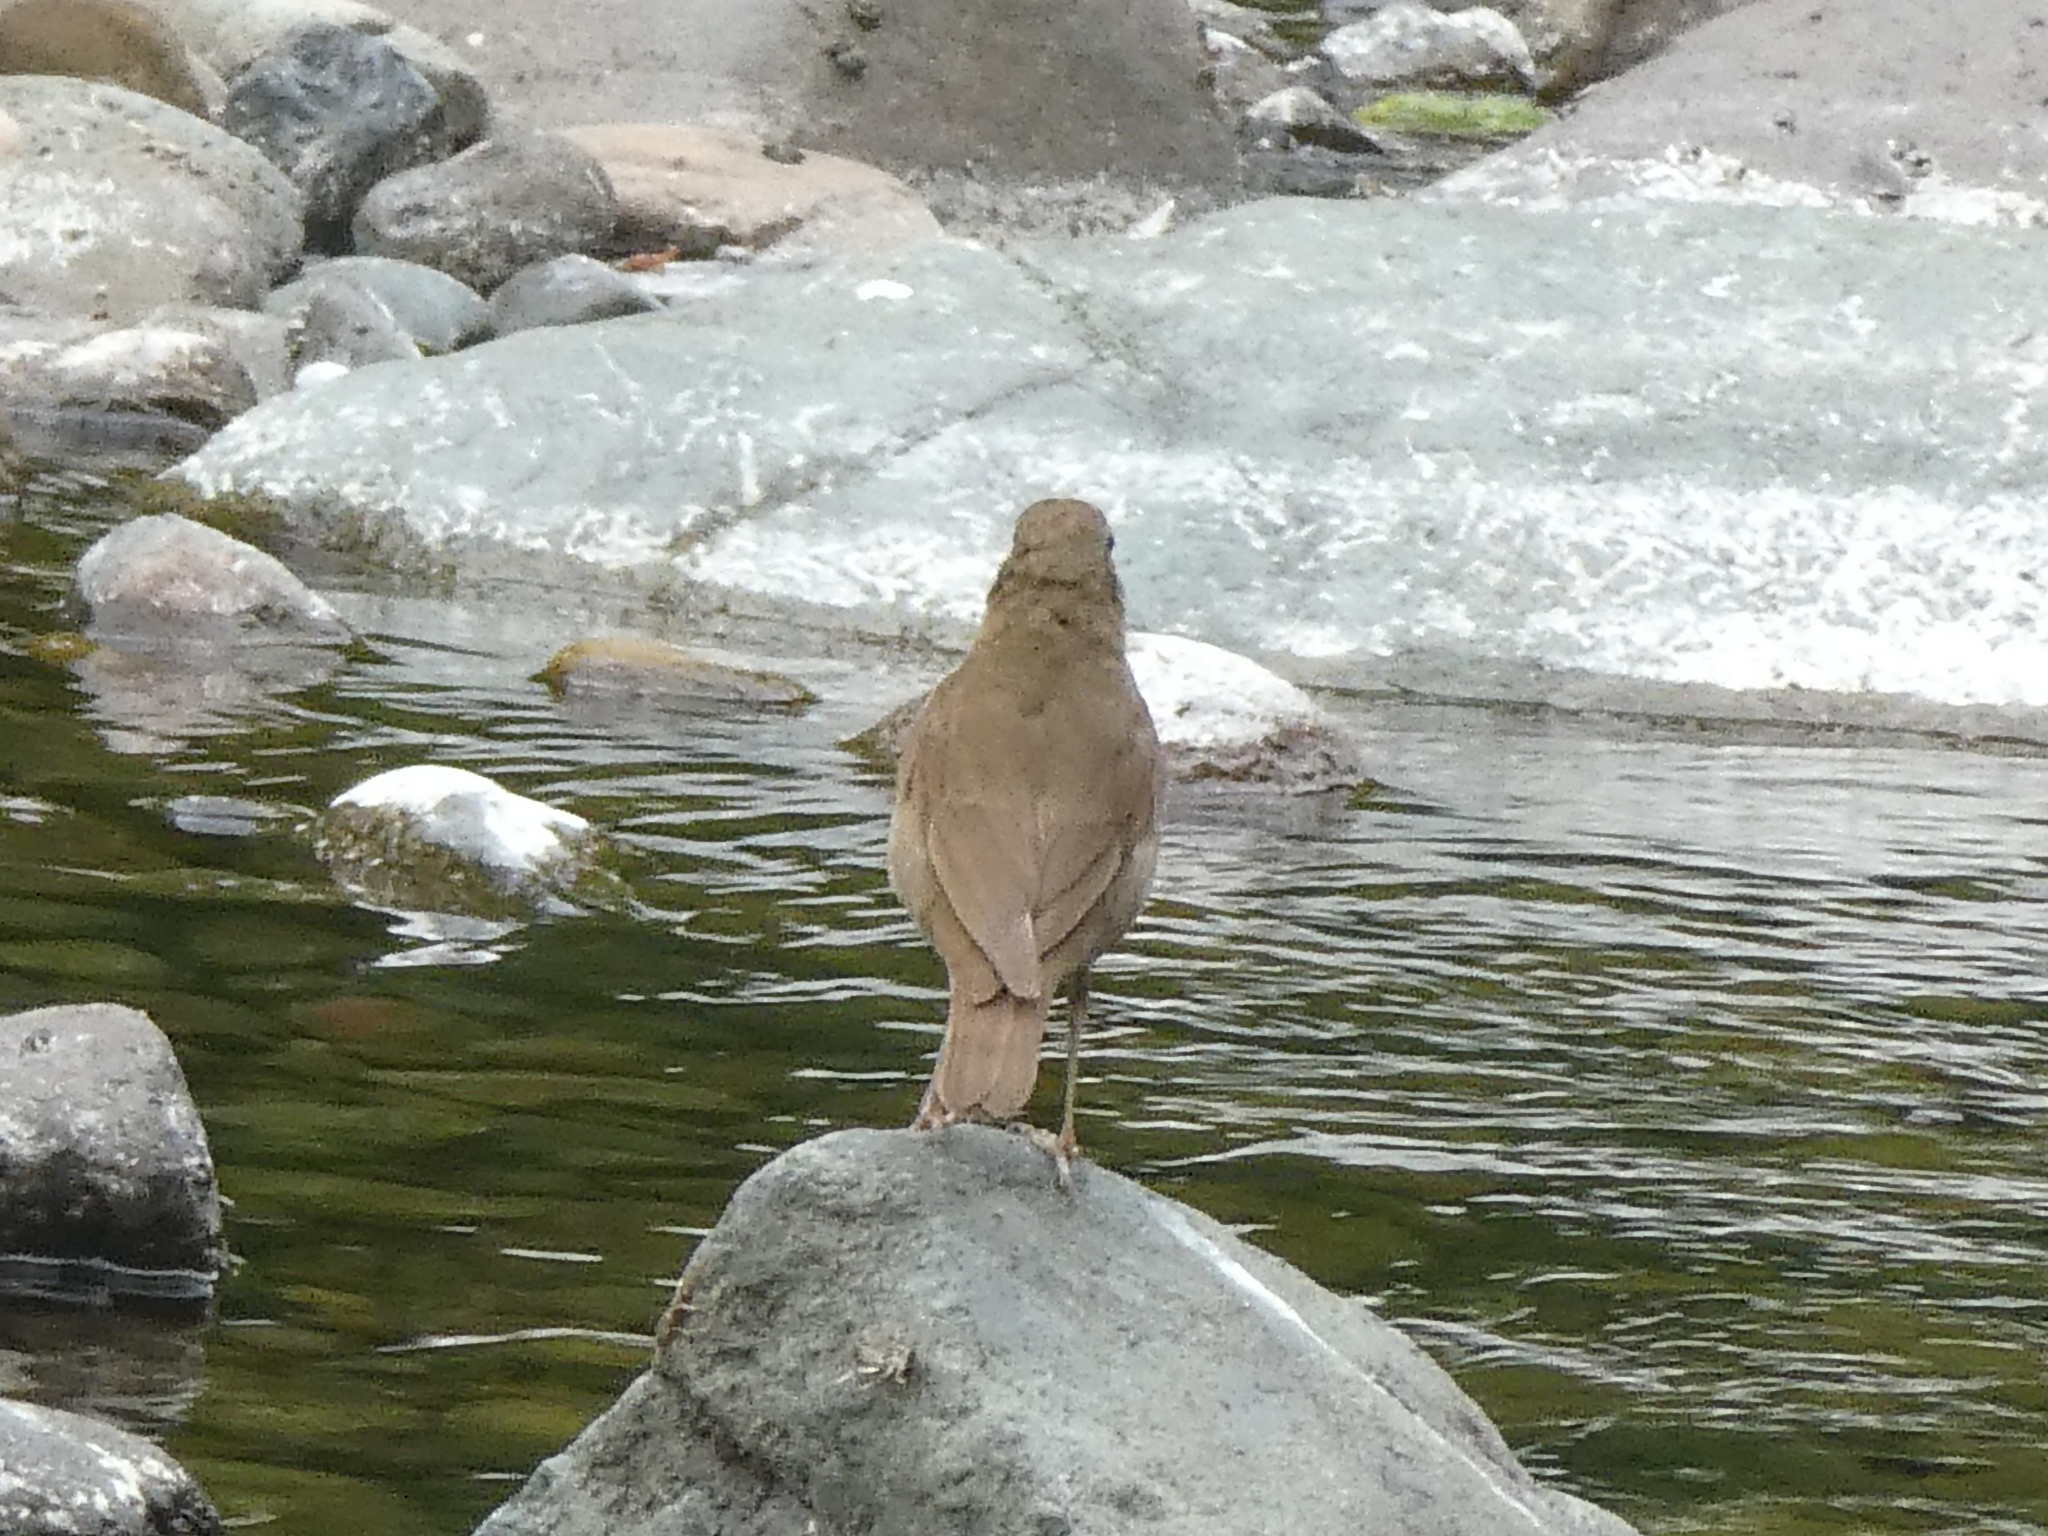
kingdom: Animalia
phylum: Chordata
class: Aves
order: Passeriformes
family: Turdidae
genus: Catharus
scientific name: Catharus ustulatus
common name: Swainson's thrush
